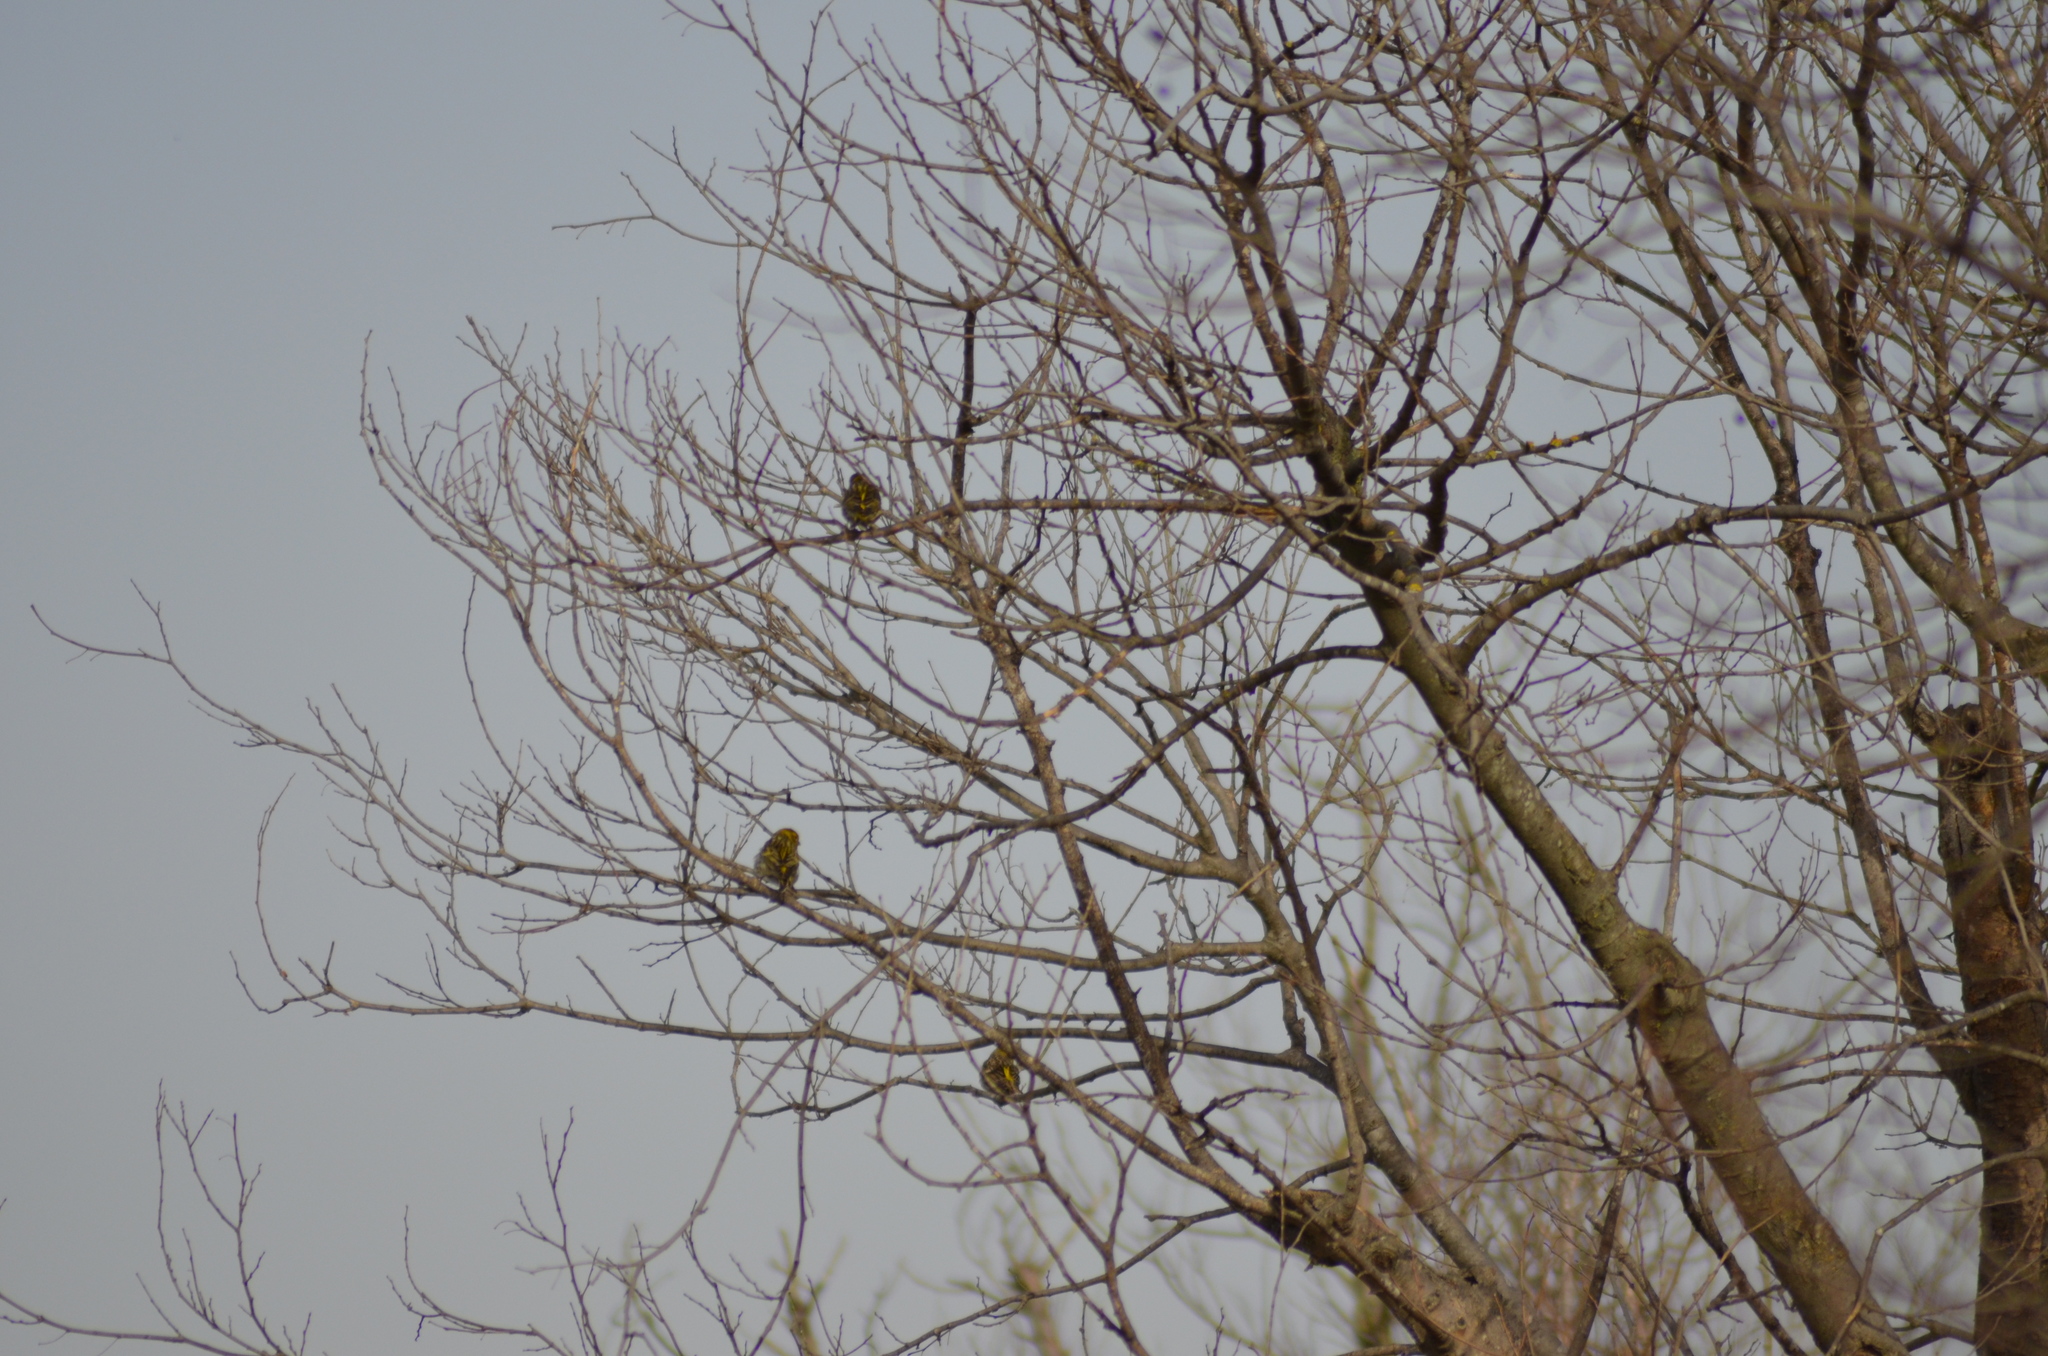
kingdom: Animalia
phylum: Chordata
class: Aves
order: Passeriformes
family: Fringillidae
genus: Serinus
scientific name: Serinus serinus
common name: European serin
